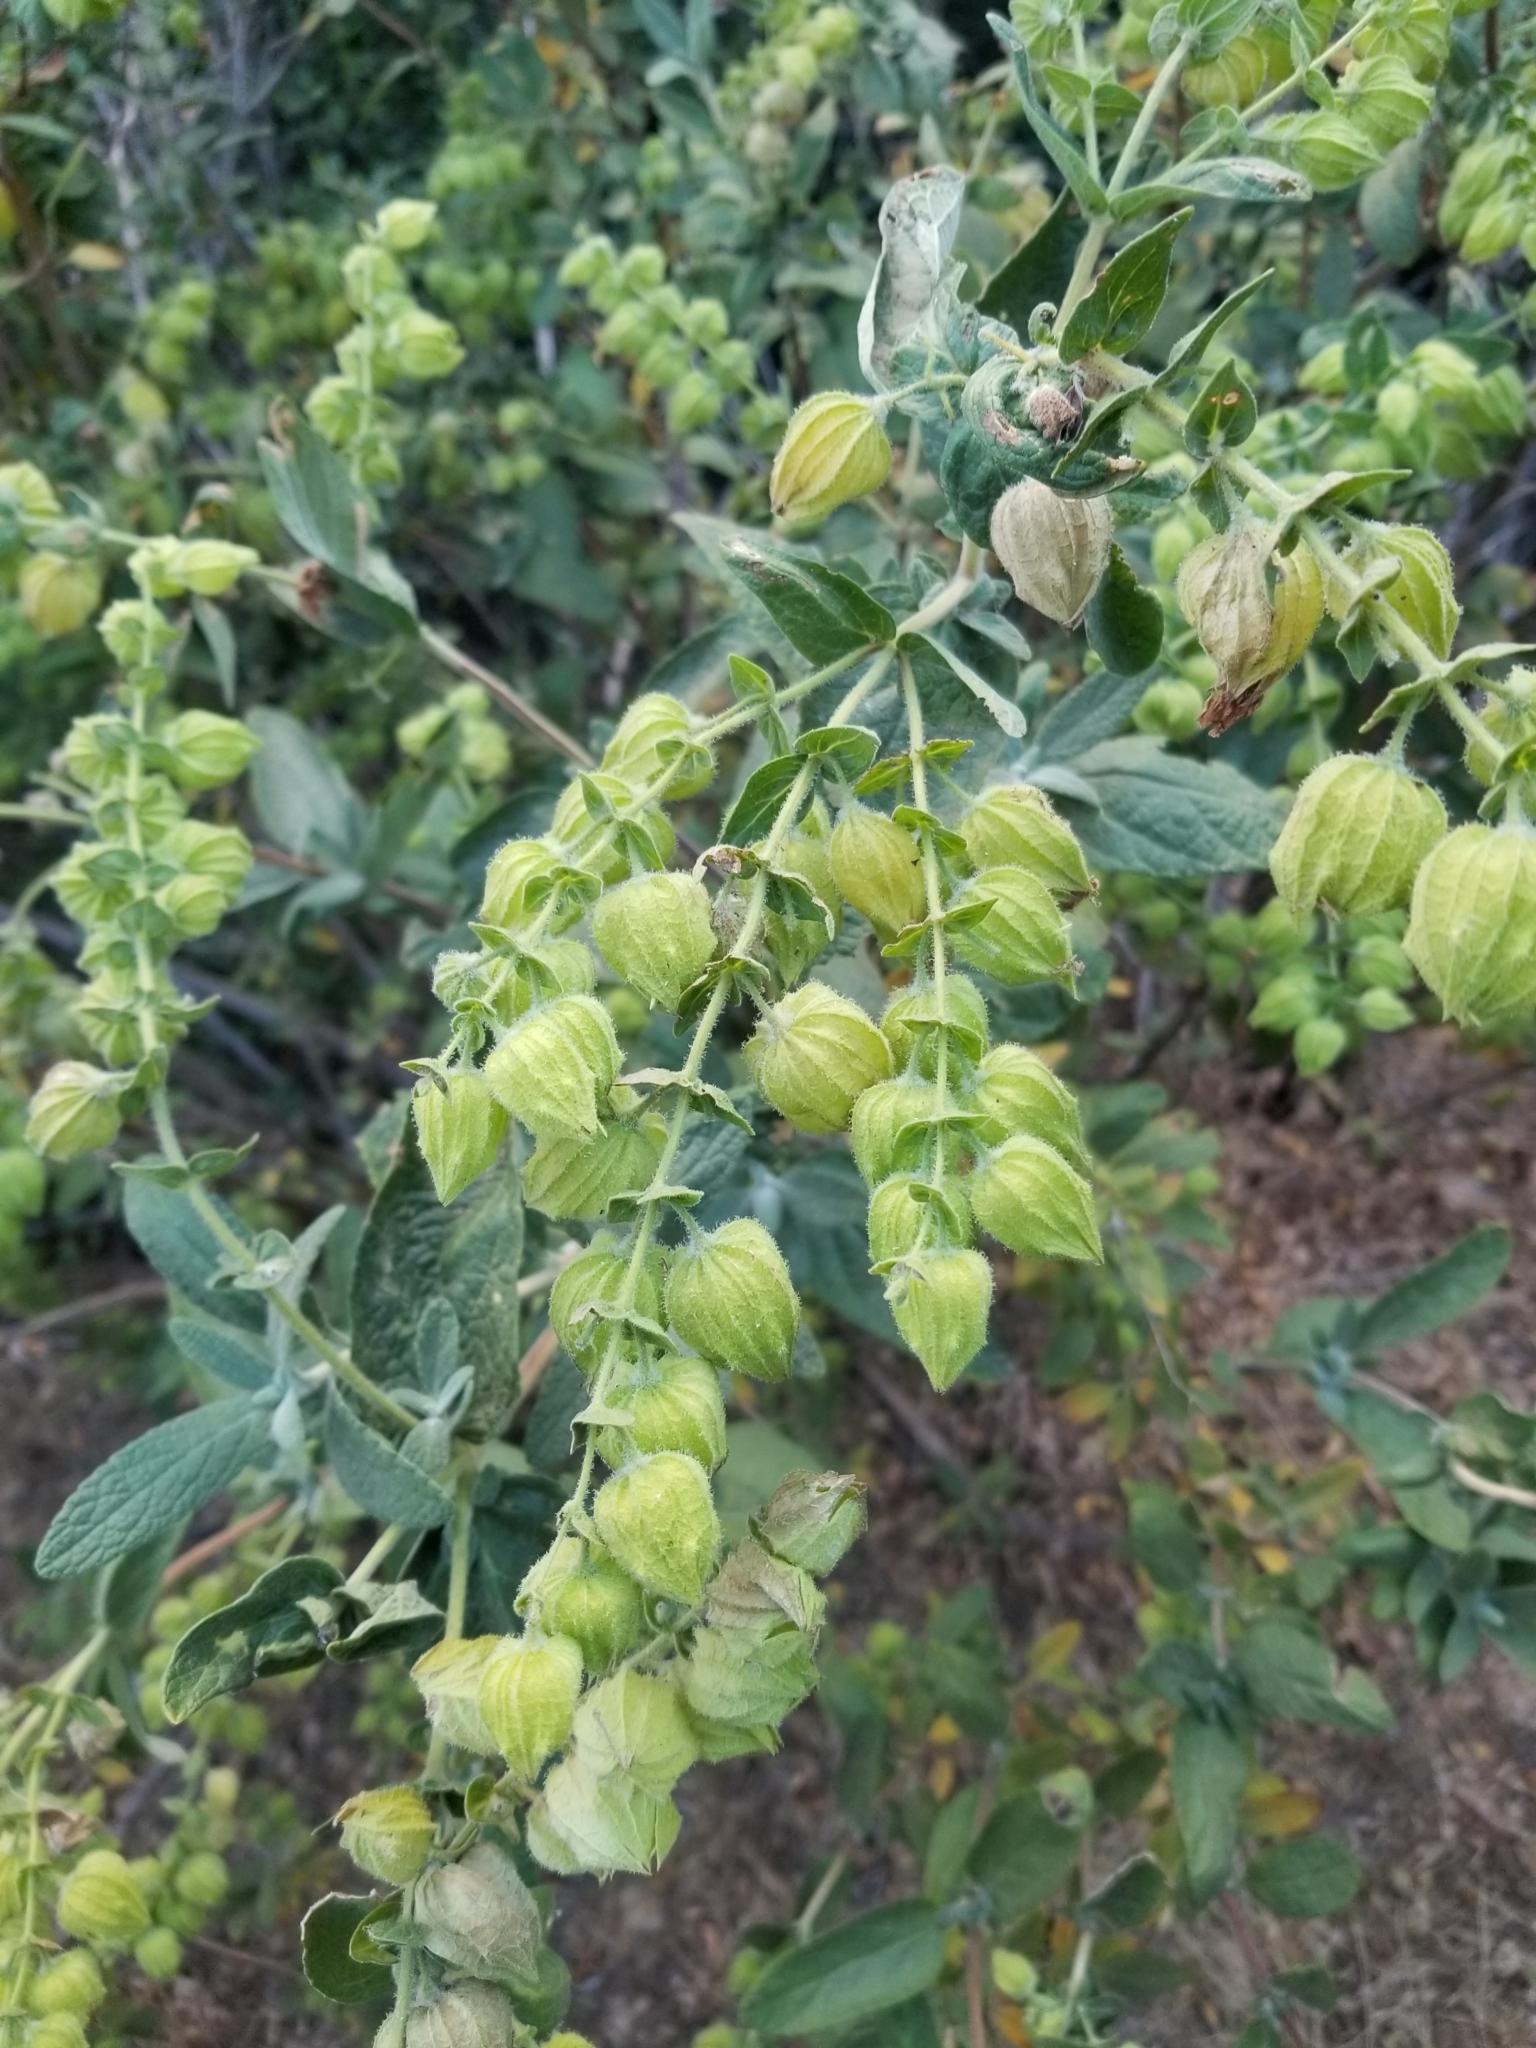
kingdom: Plantae
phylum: Tracheophyta
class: Magnoliopsida
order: Lamiales
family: Lamiaceae
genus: Lepechinia
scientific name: Lepechinia calycina
